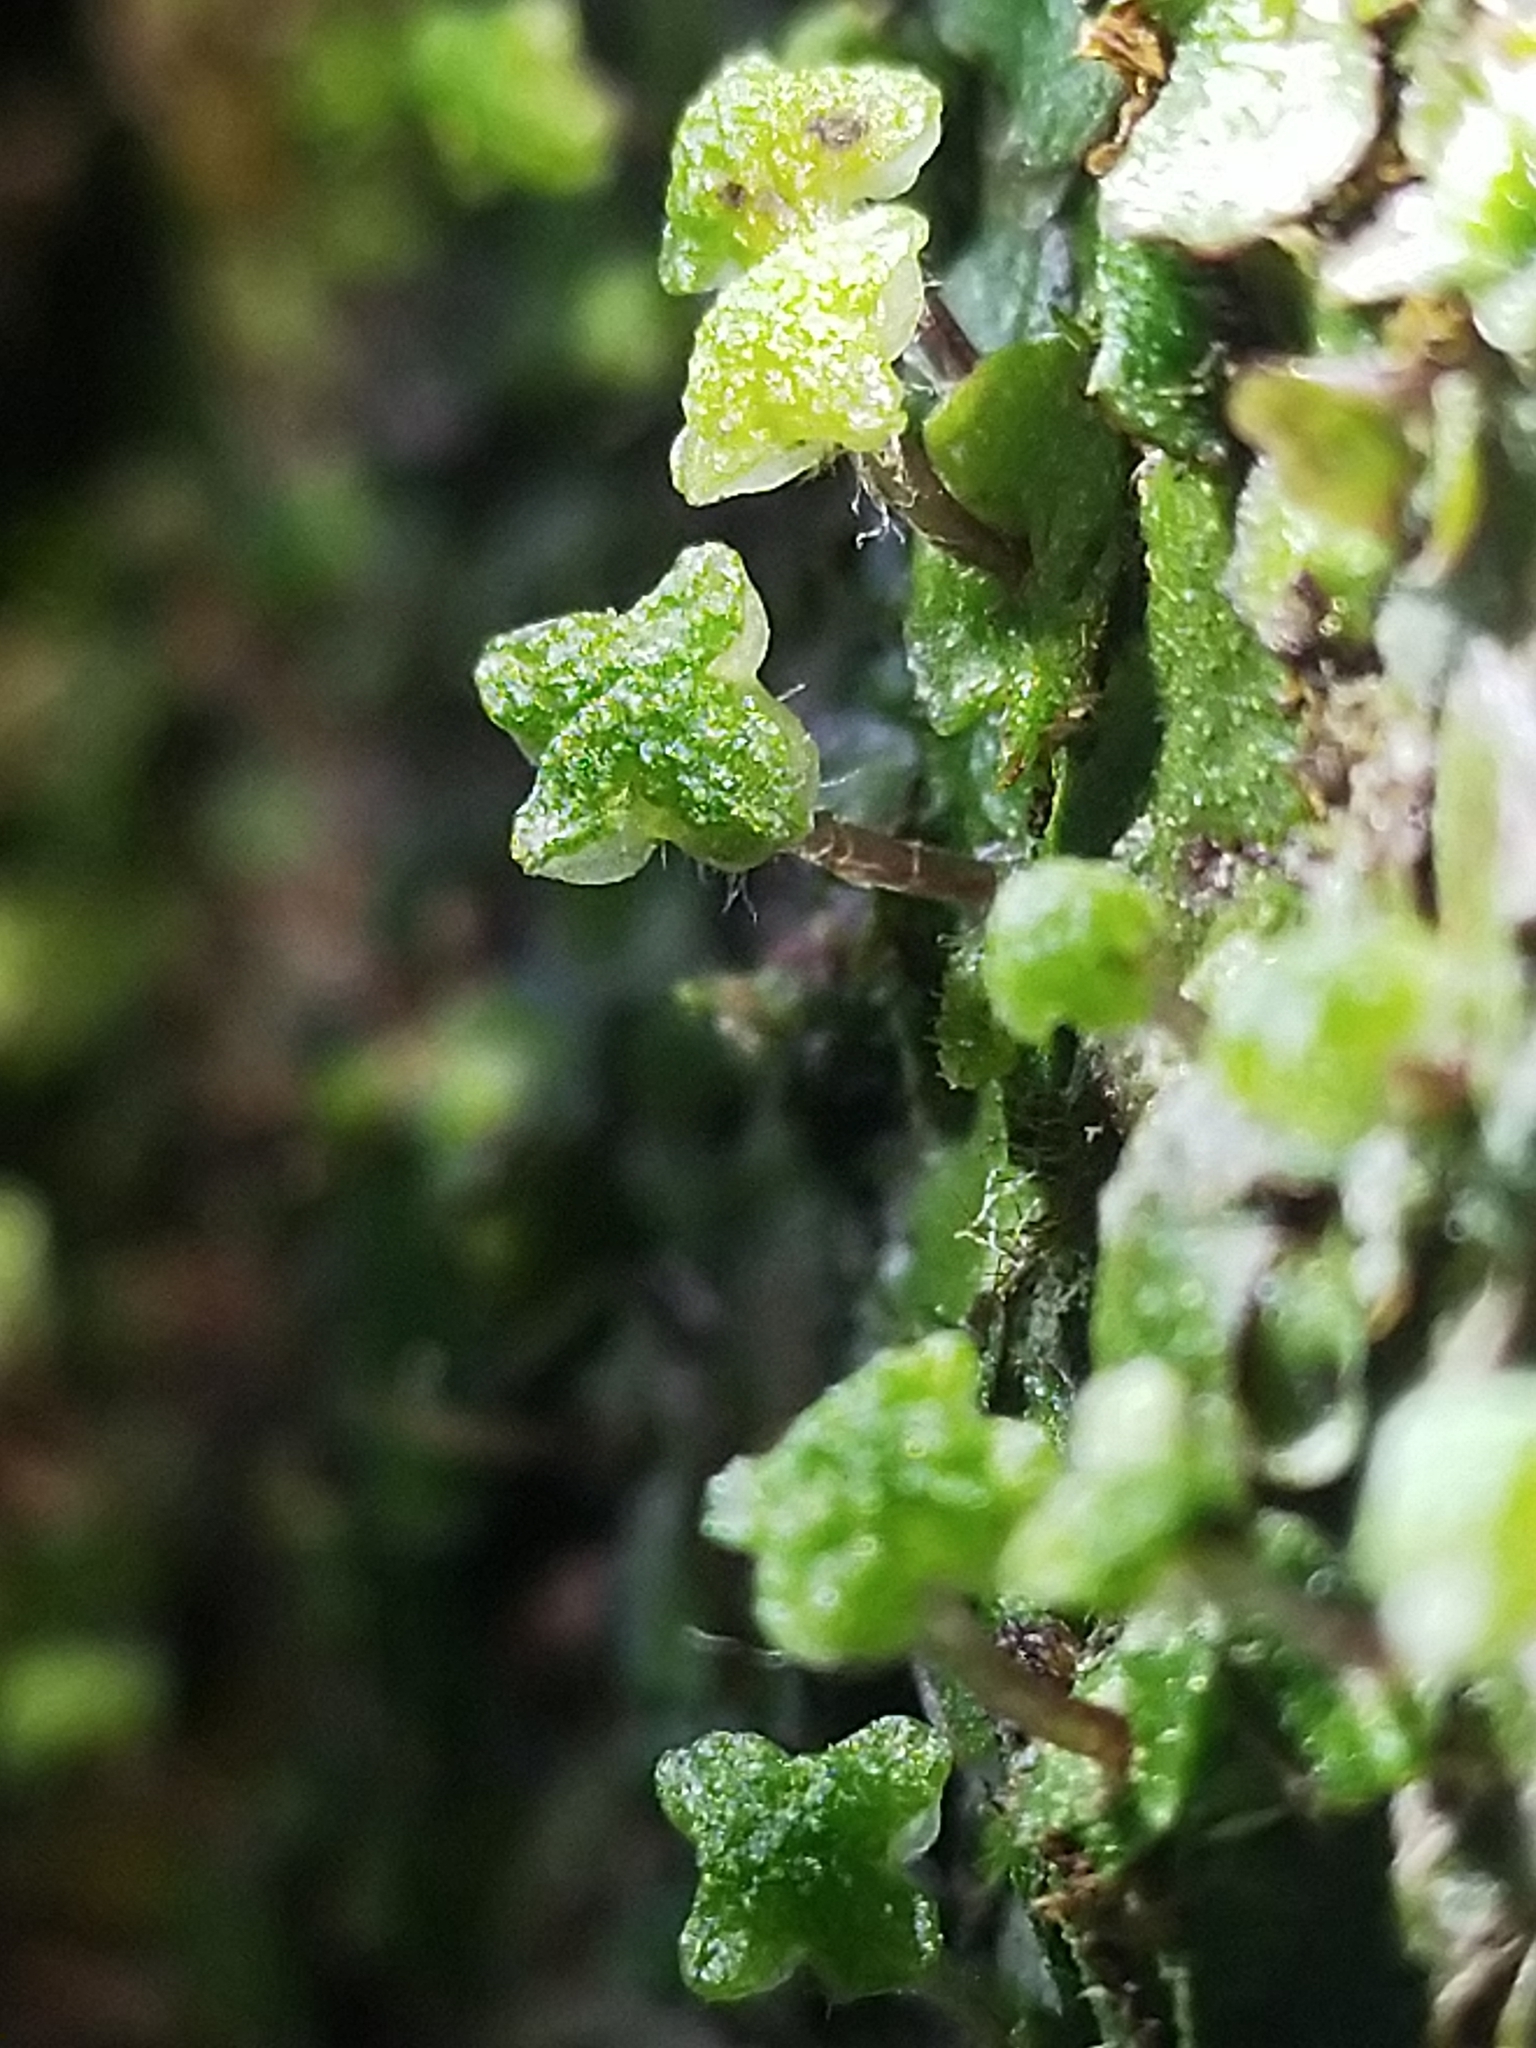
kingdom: Plantae
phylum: Marchantiophyta
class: Marchantiopsida
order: Marchantiales
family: Aytoniaceae
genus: Reboulia
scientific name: Reboulia hemisphaerica
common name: Purple-margined liverwort
